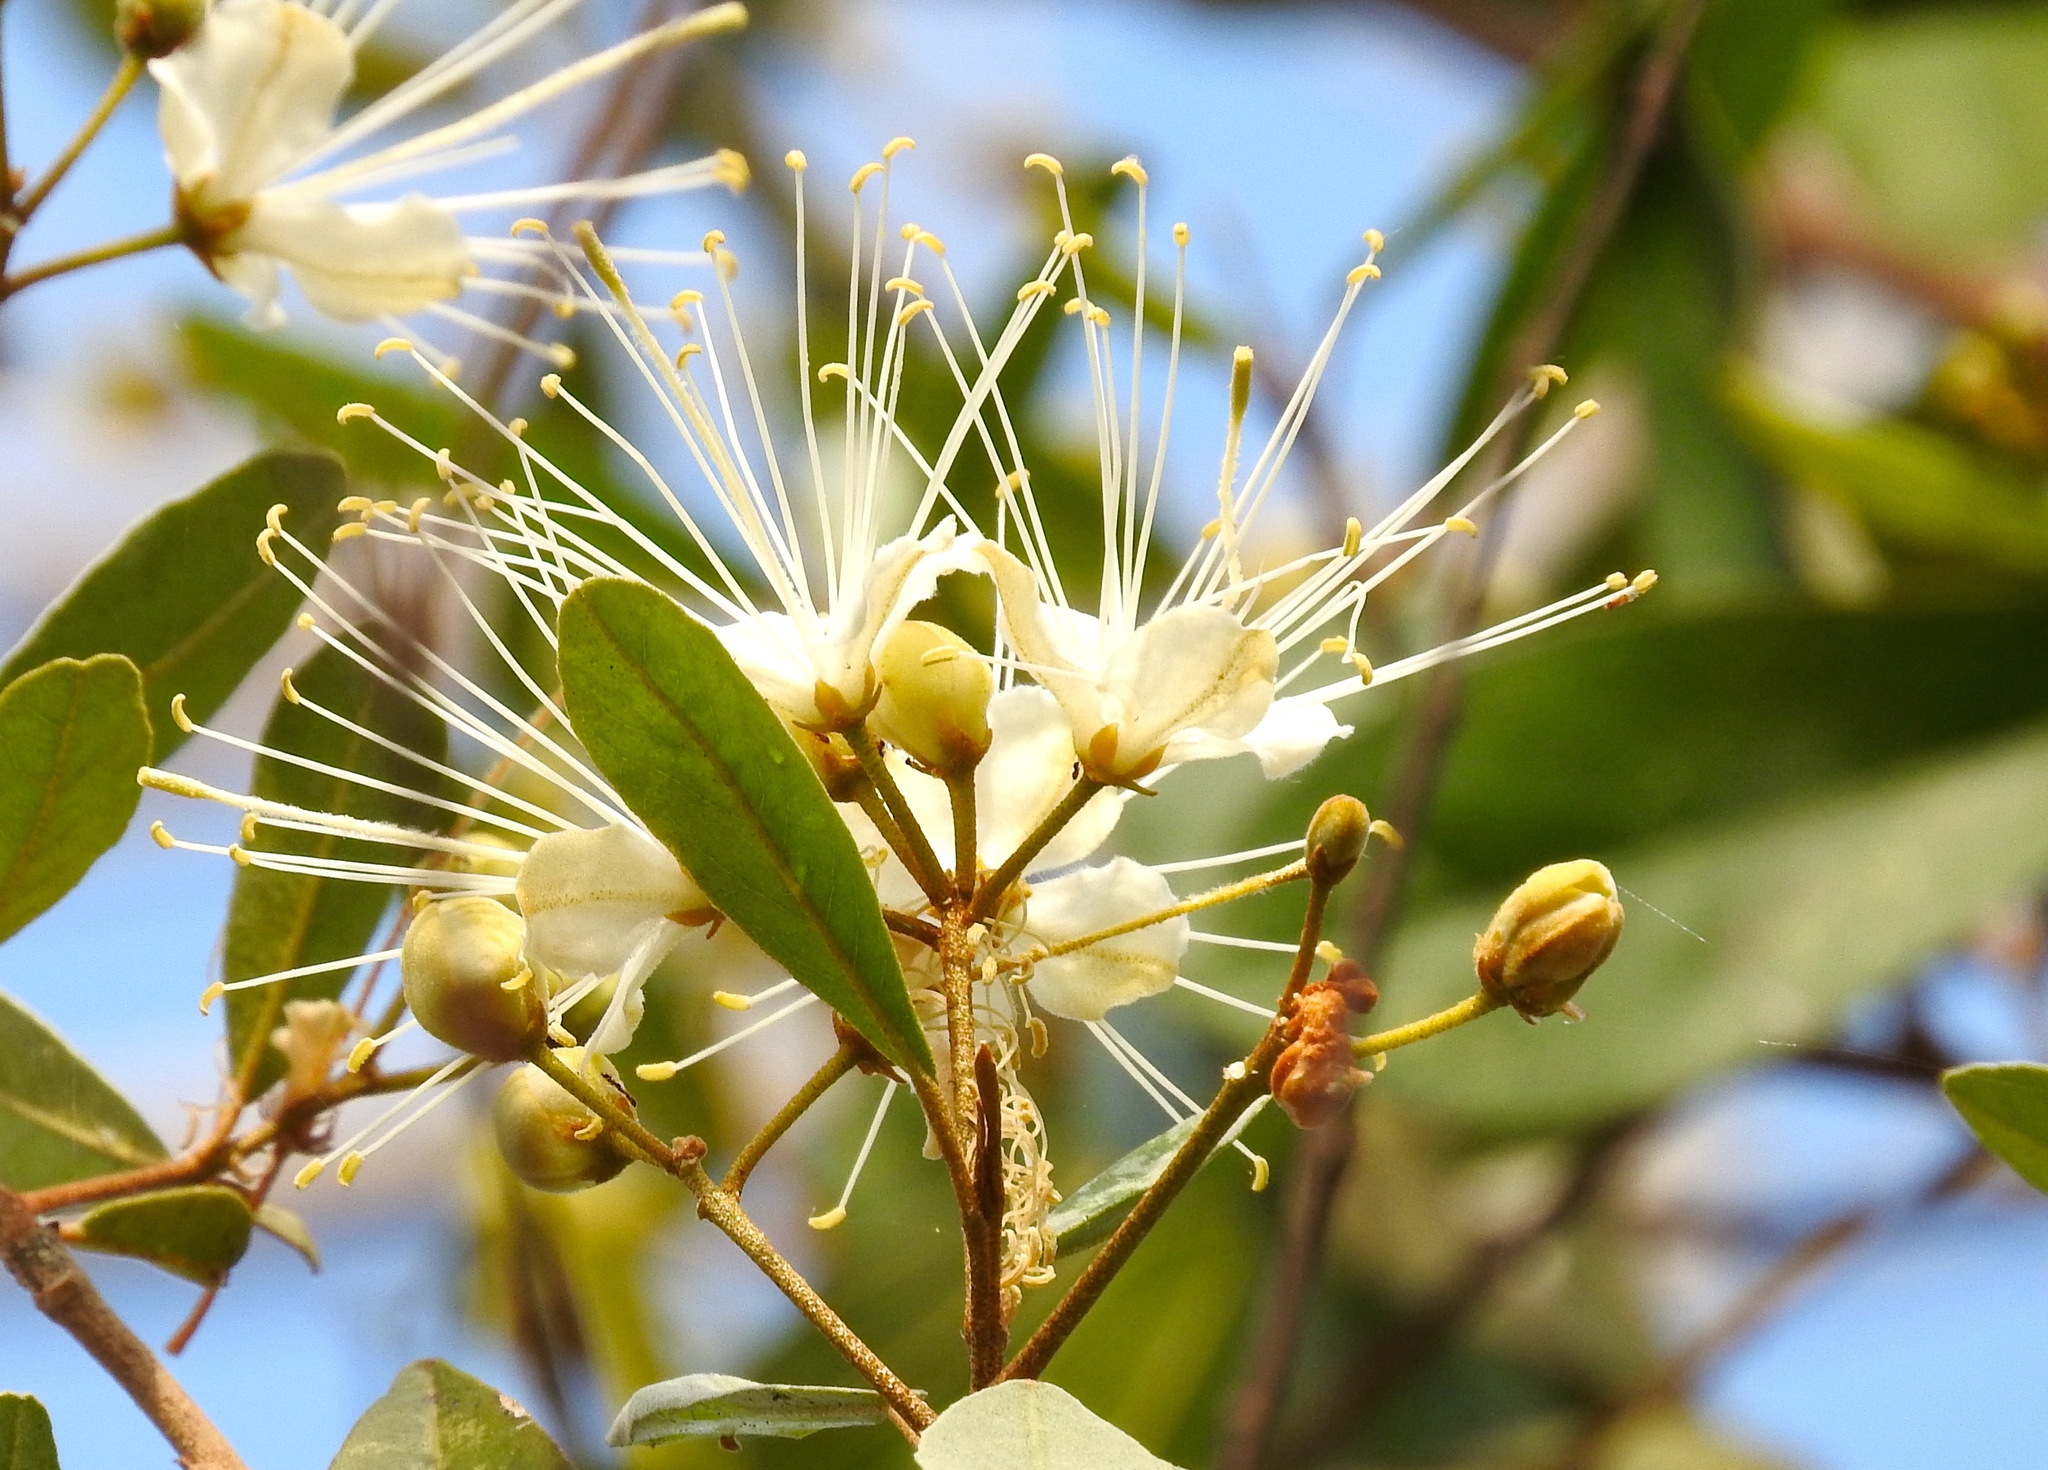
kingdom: Plantae
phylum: Tracheophyta
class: Magnoliopsida
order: Brassicales
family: Capparaceae
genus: Quadrella
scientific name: Quadrella indica
